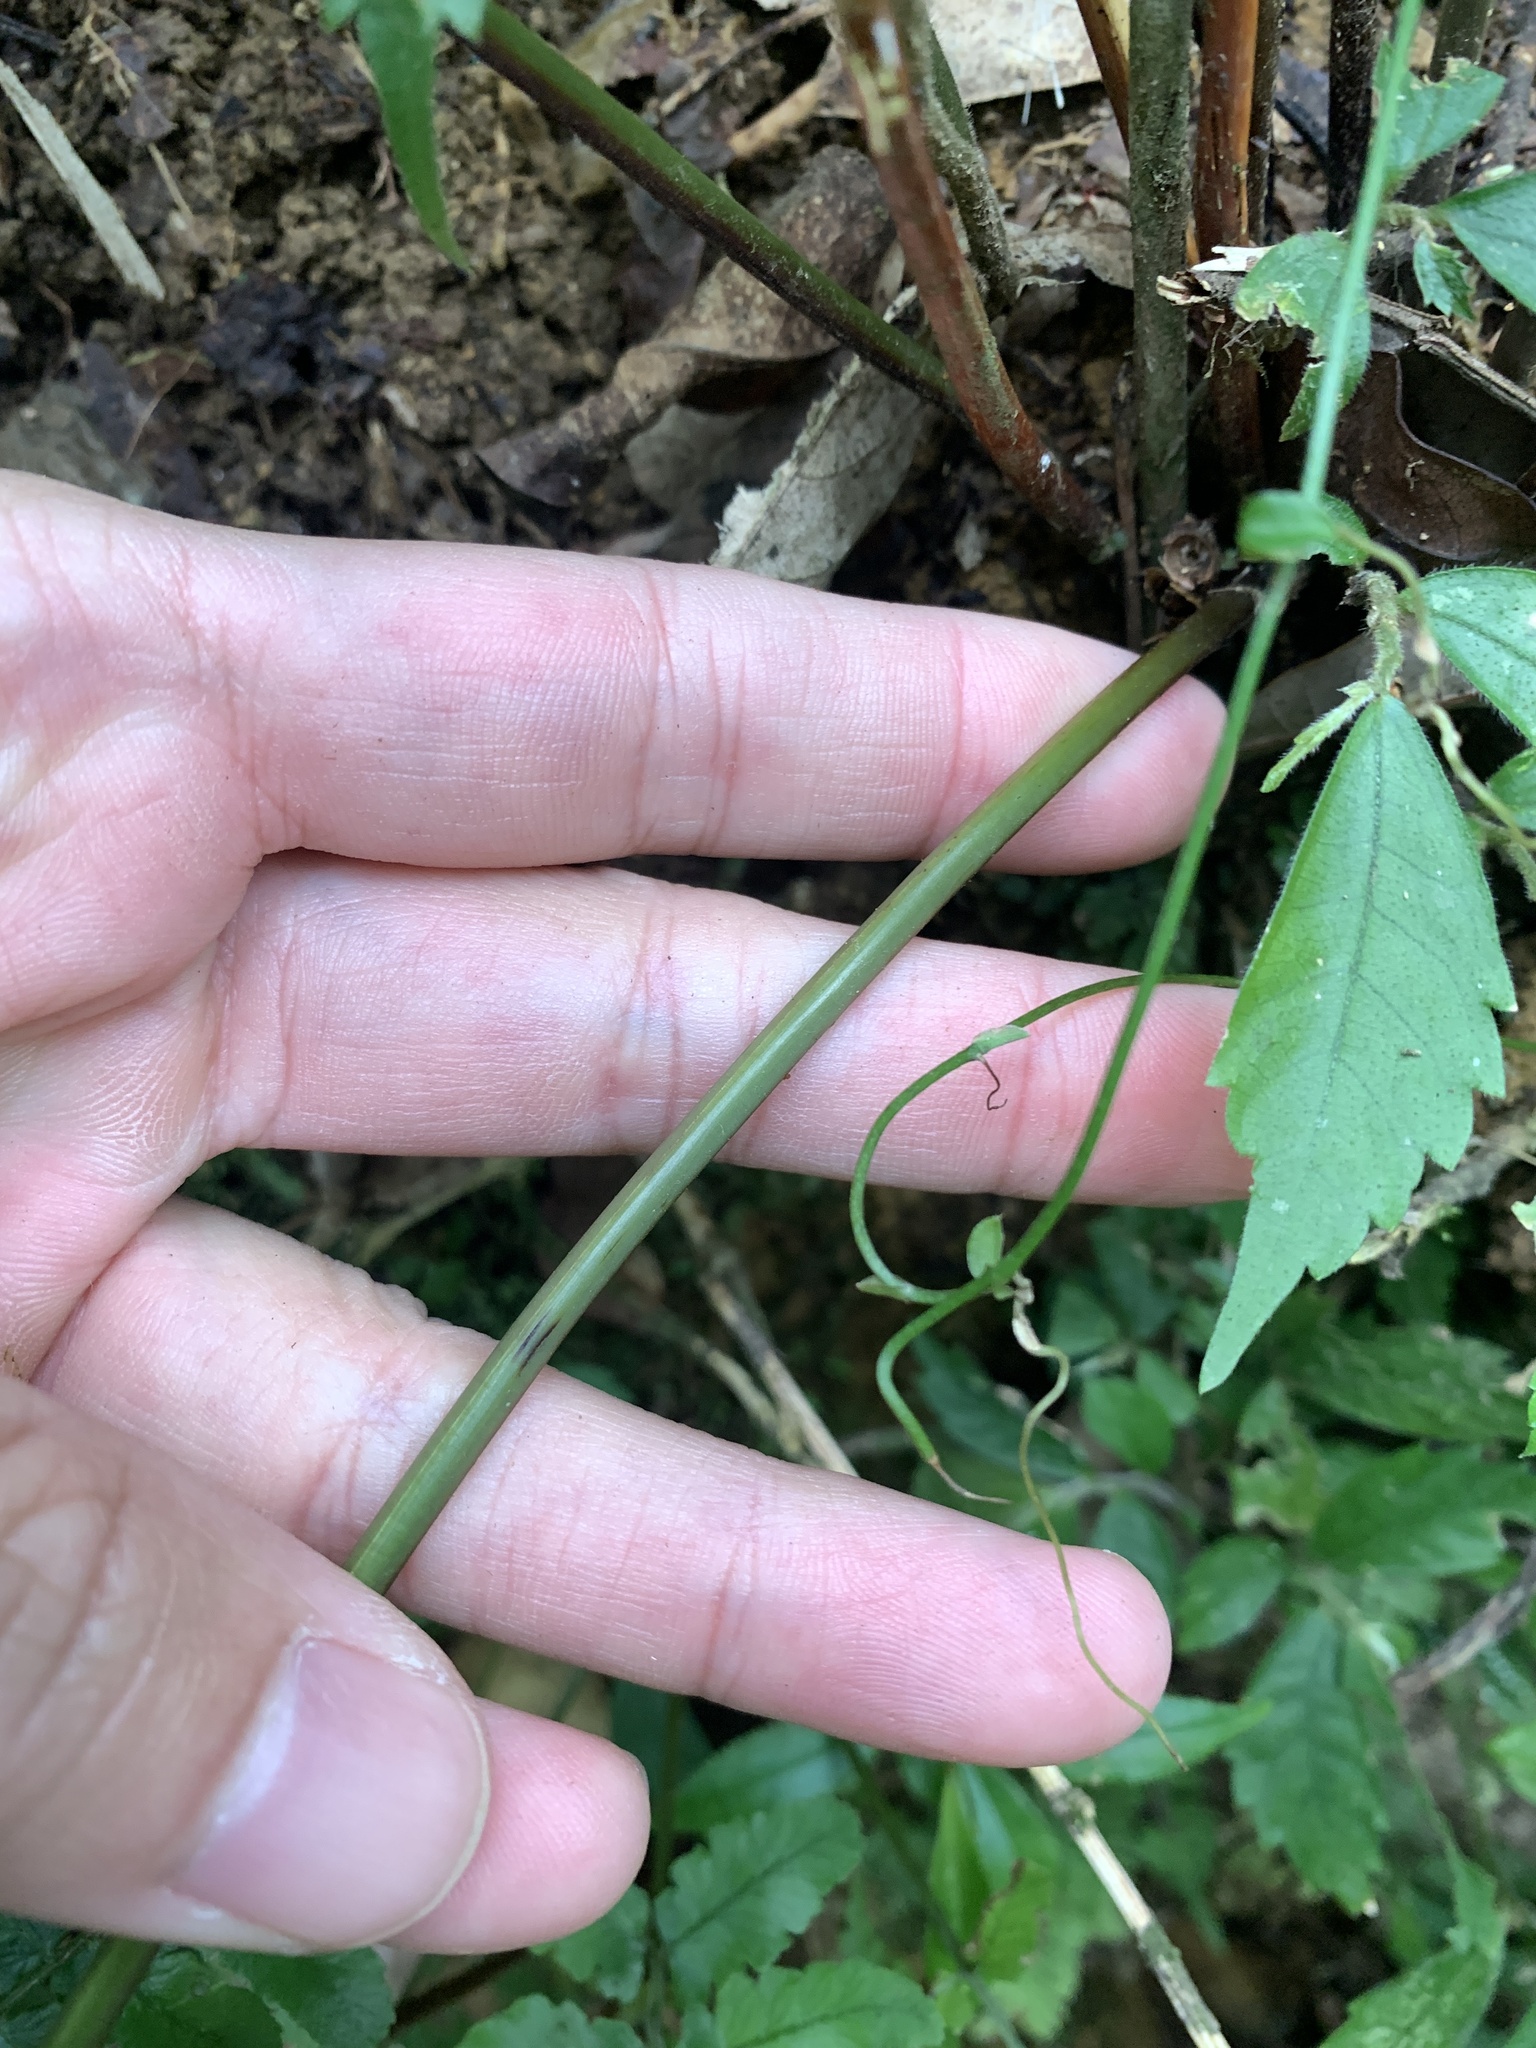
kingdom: Plantae
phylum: Tracheophyta
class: Polypodiopsida
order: Polypodiales
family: Pteridaceae
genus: Pteris
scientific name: Pteris kawabatae
